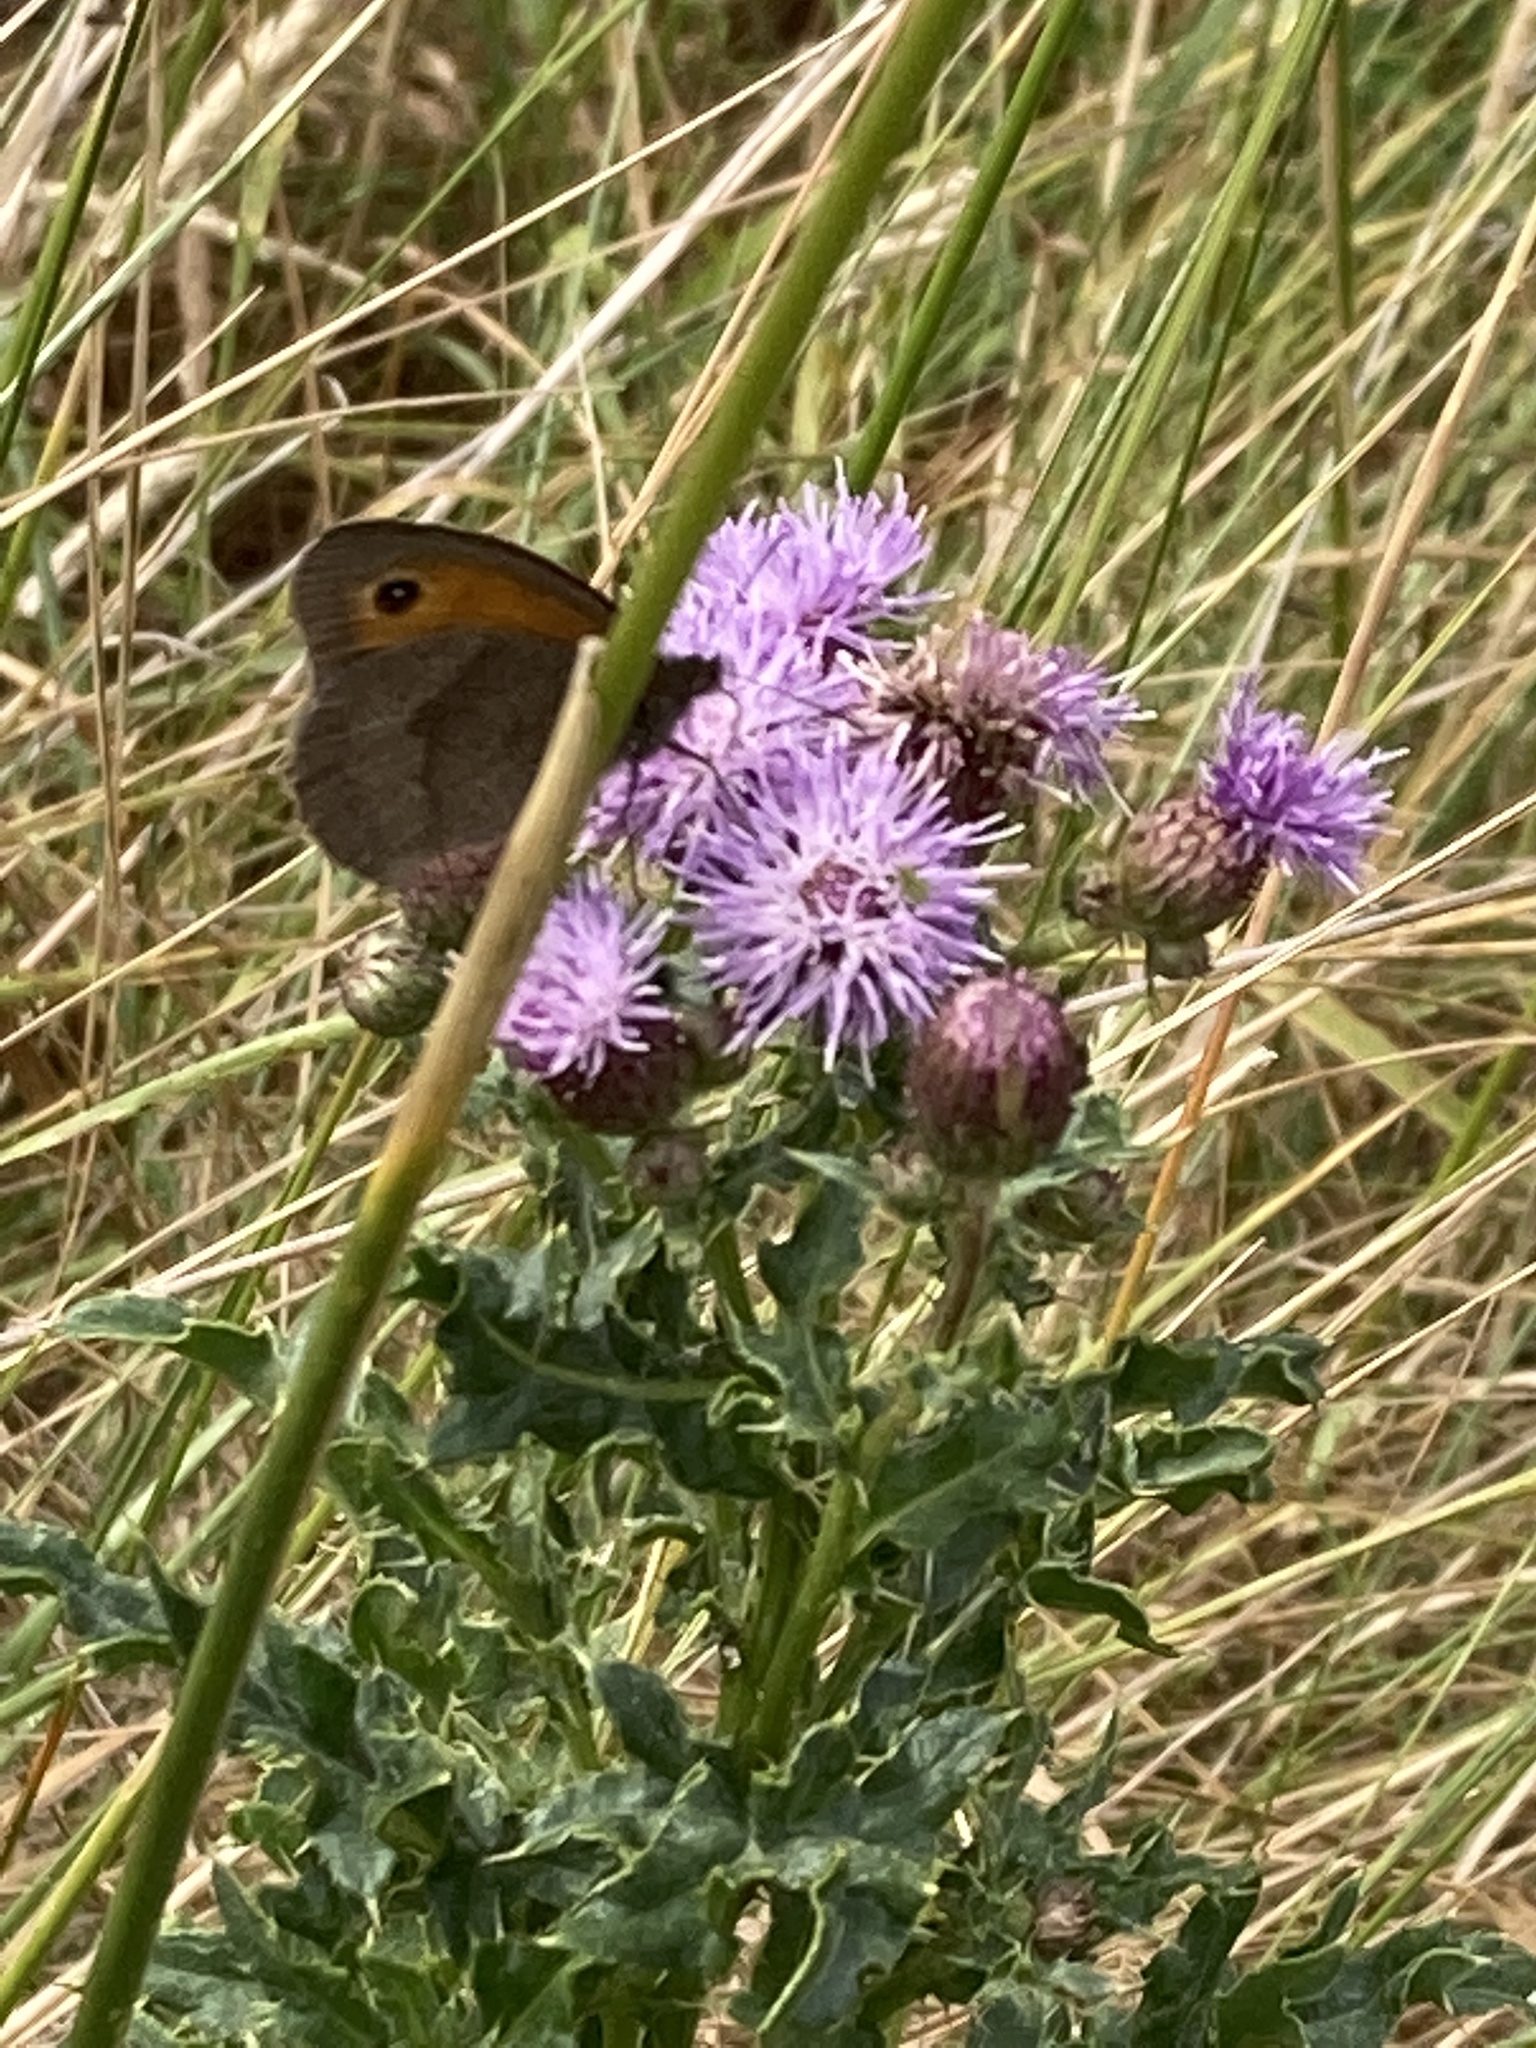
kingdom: Animalia
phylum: Arthropoda
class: Insecta
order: Lepidoptera
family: Nymphalidae
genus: Maniola
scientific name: Maniola jurtina
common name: Meadow brown
